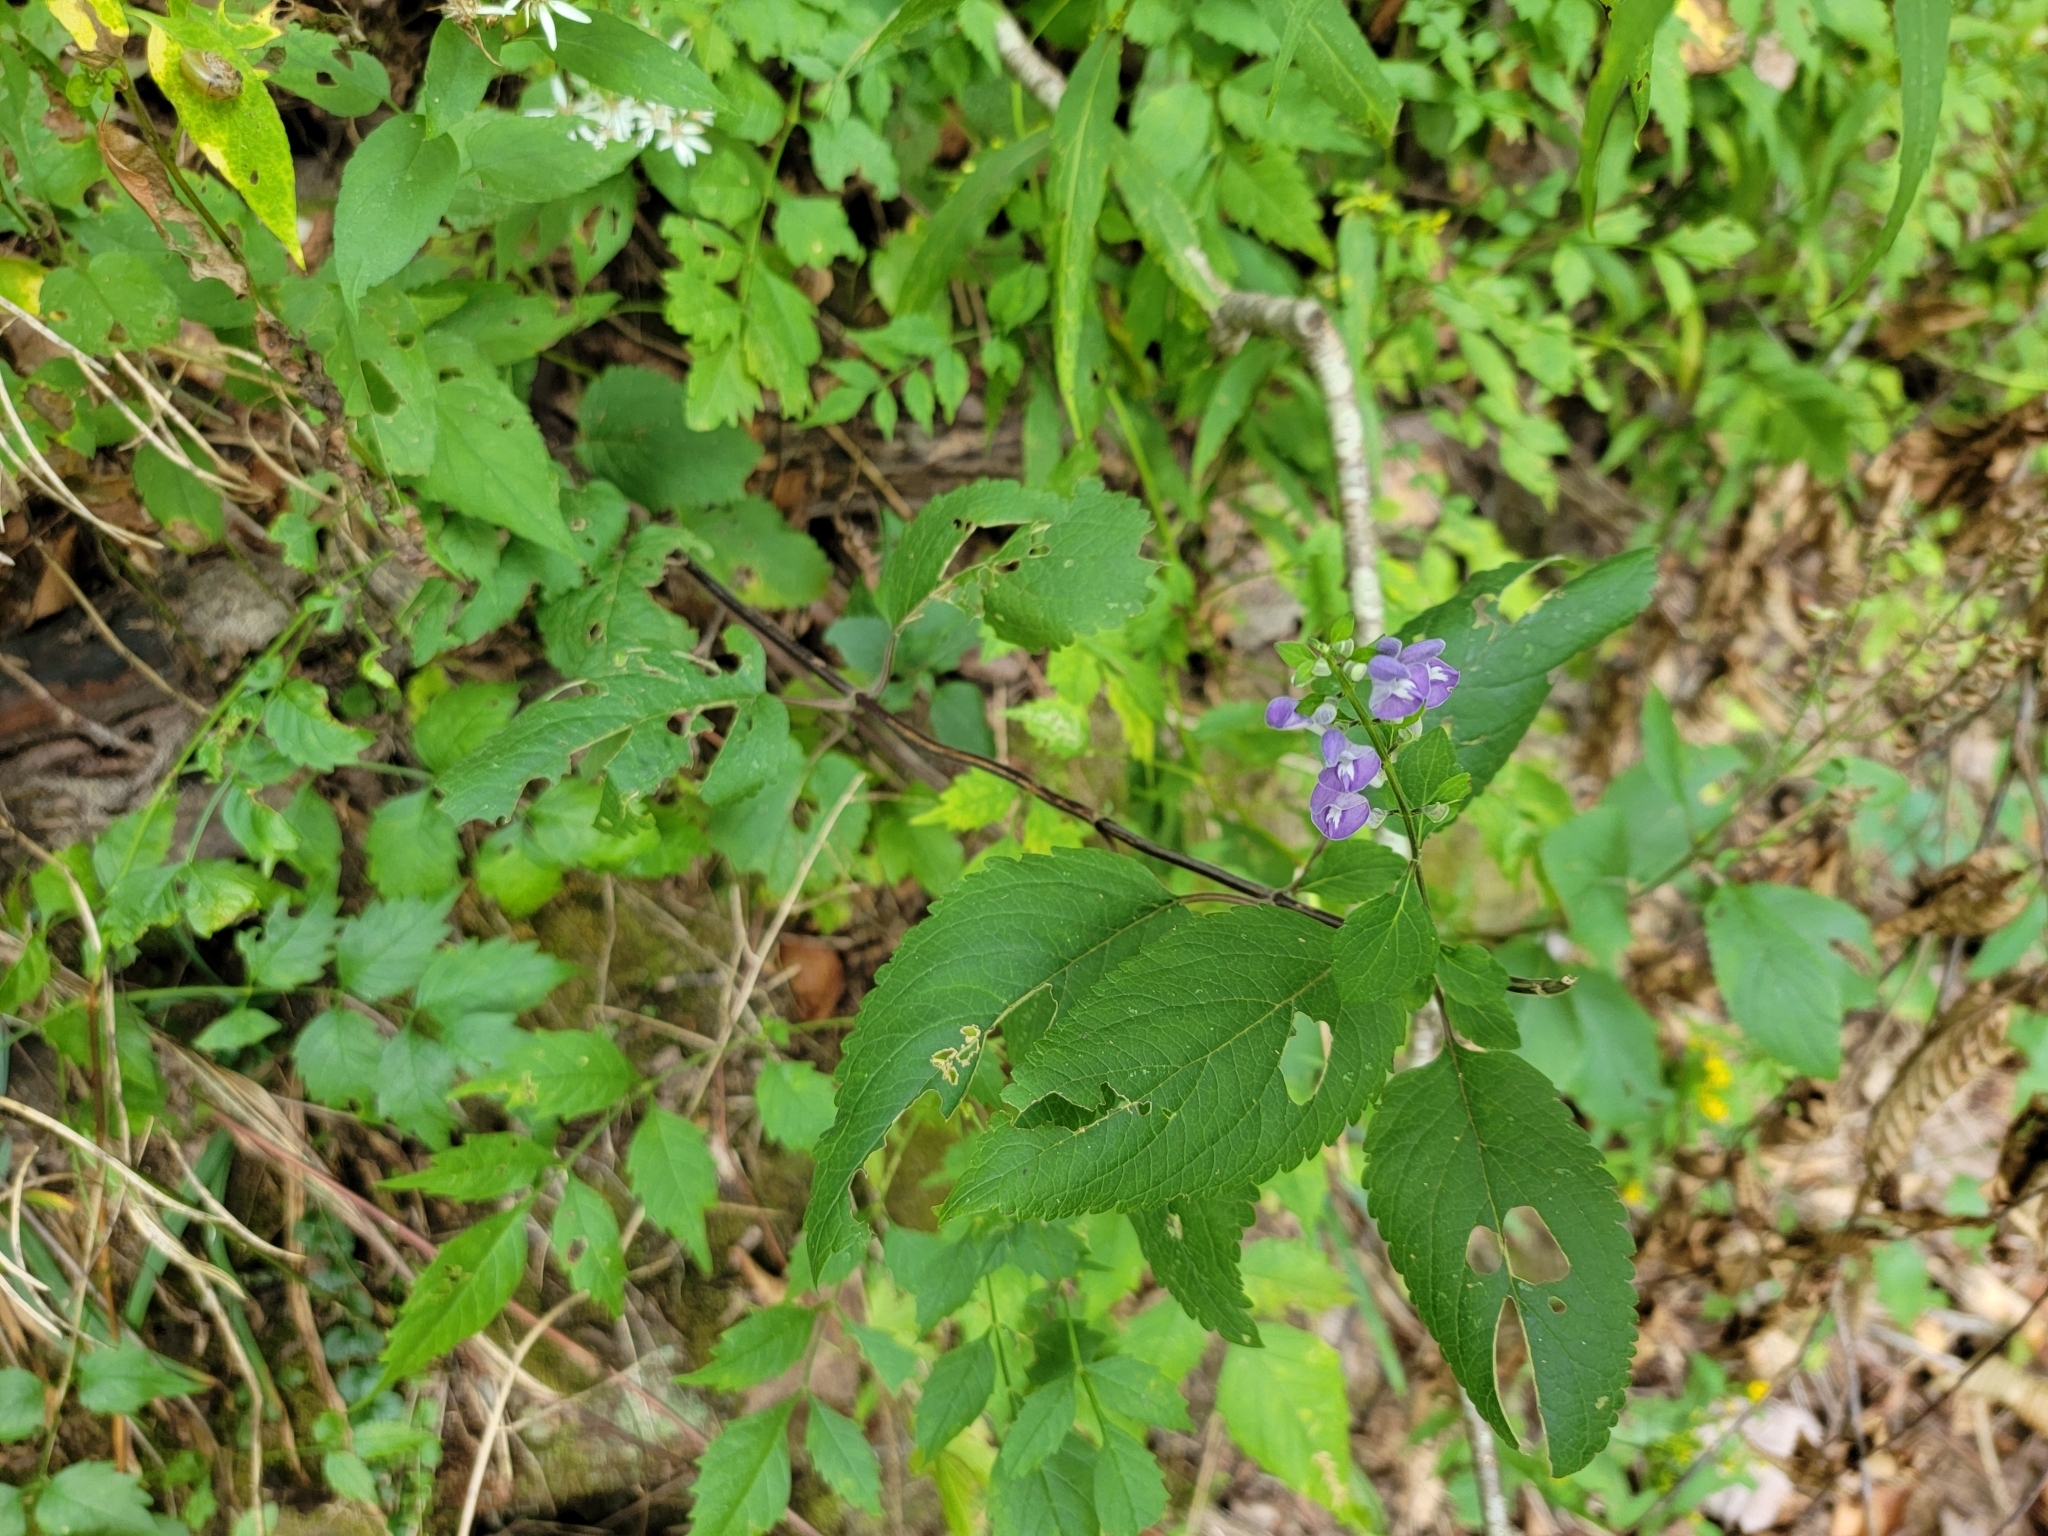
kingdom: Plantae
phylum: Tracheophyta
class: Magnoliopsida
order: Lamiales
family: Lamiaceae
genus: Scutellaria
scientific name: Scutellaria incana
